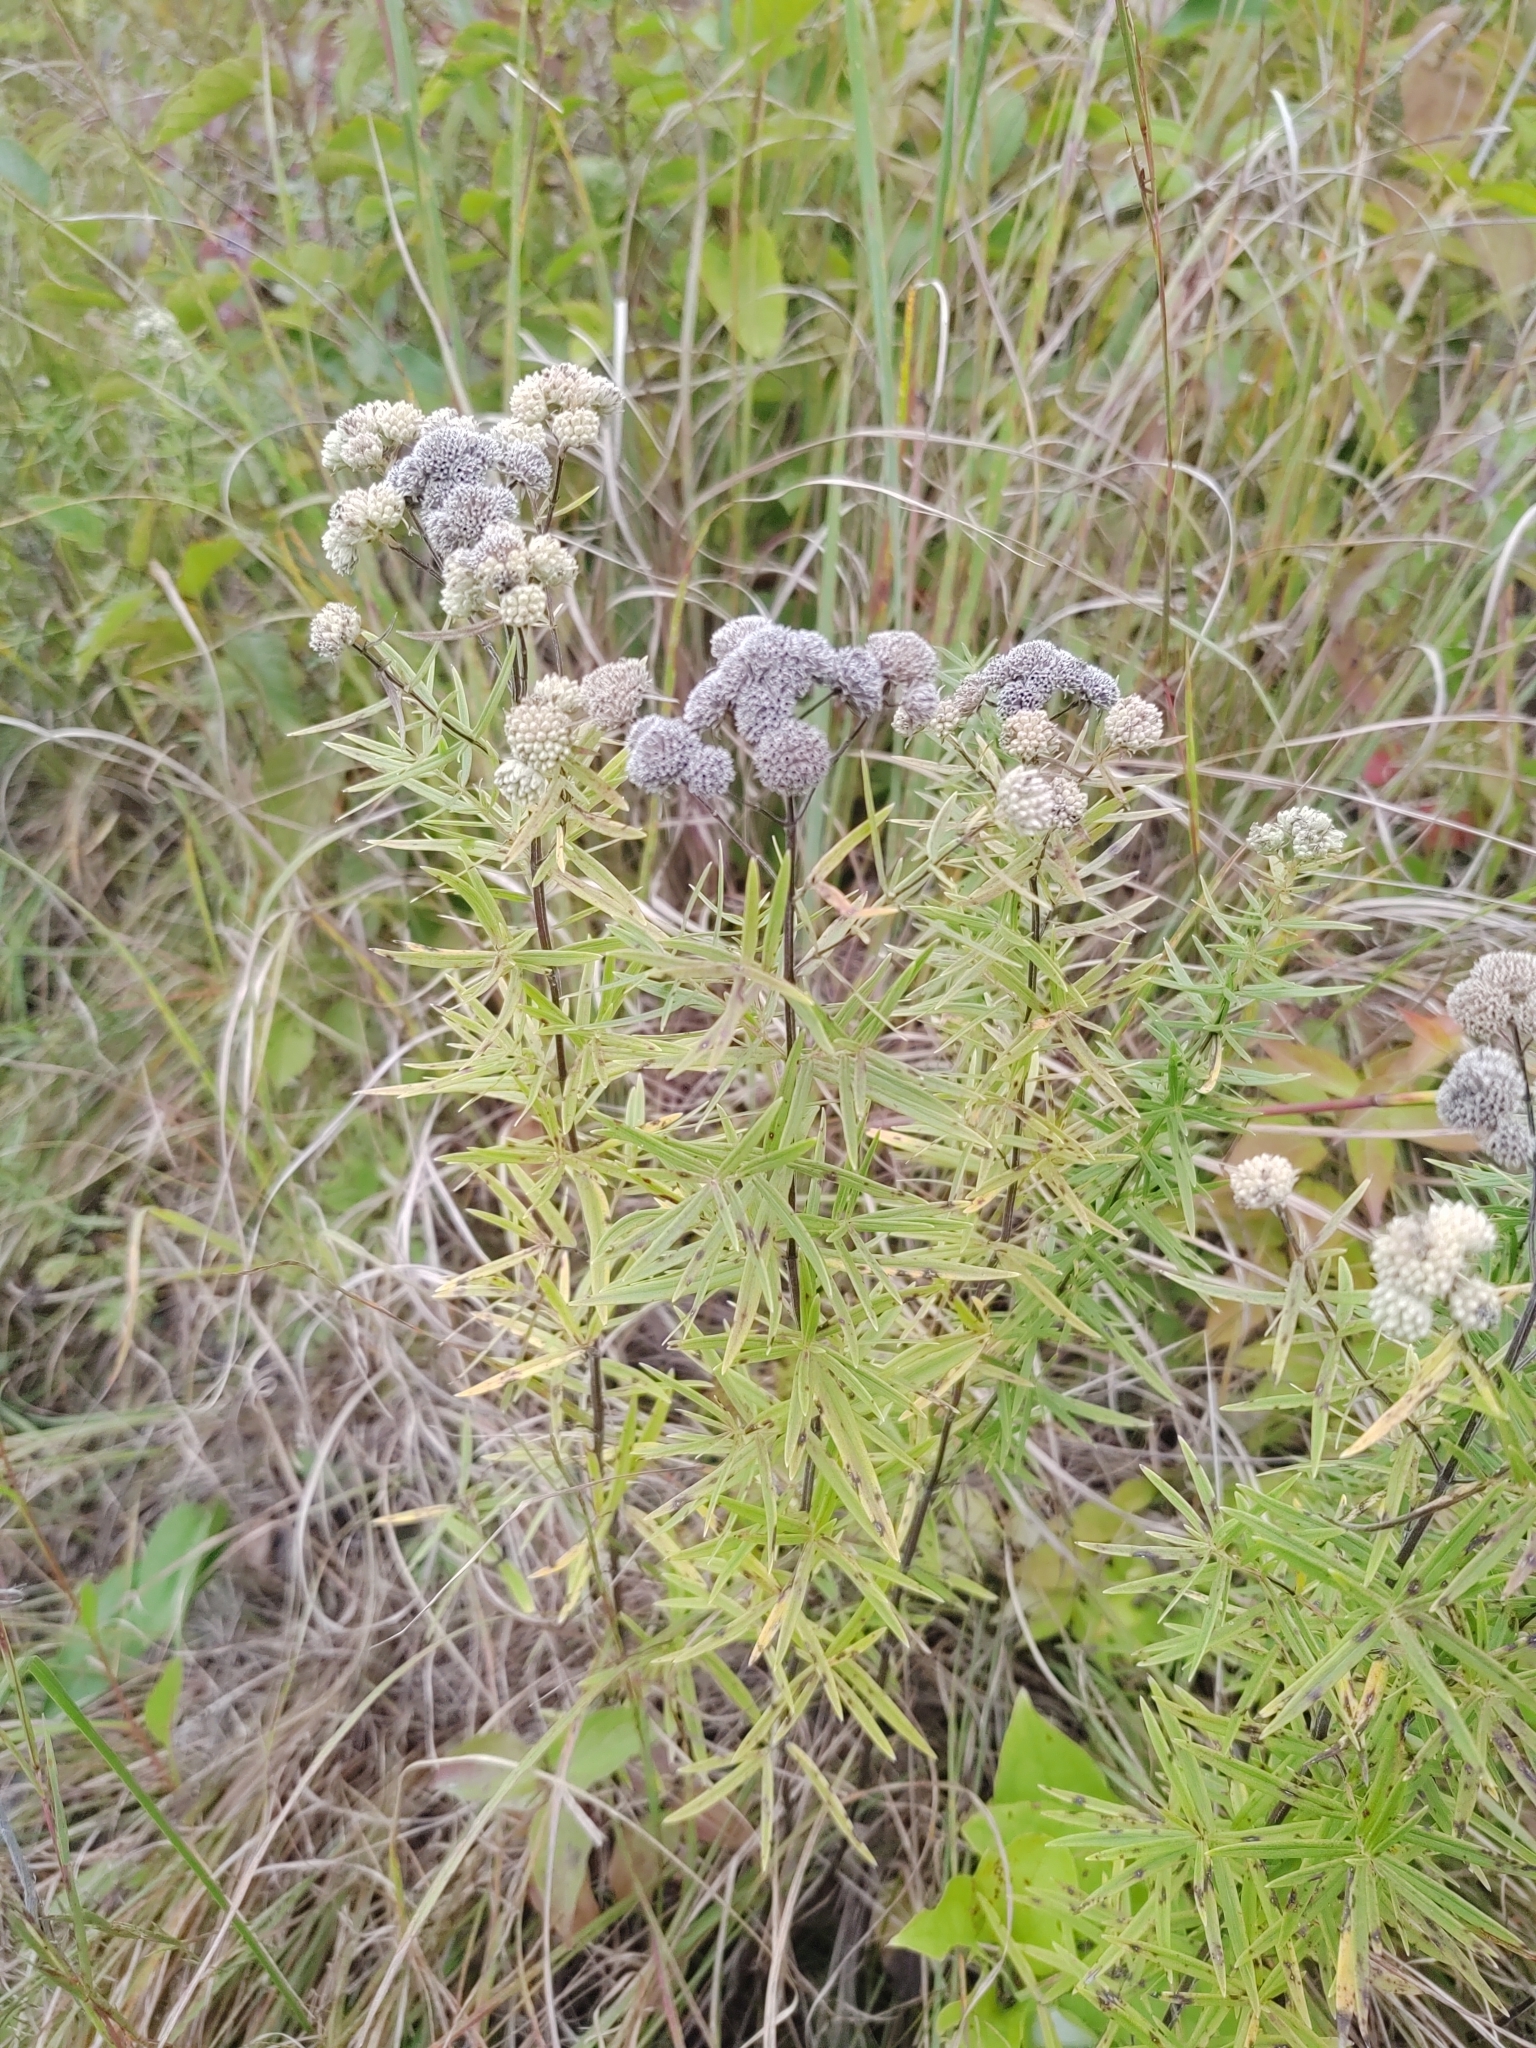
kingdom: Plantae
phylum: Tracheophyta
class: Magnoliopsida
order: Lamiales
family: Lamiaceae
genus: Pycnanthemum
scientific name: Pycnanthemum virginianum
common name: Virginia mountain-mint
